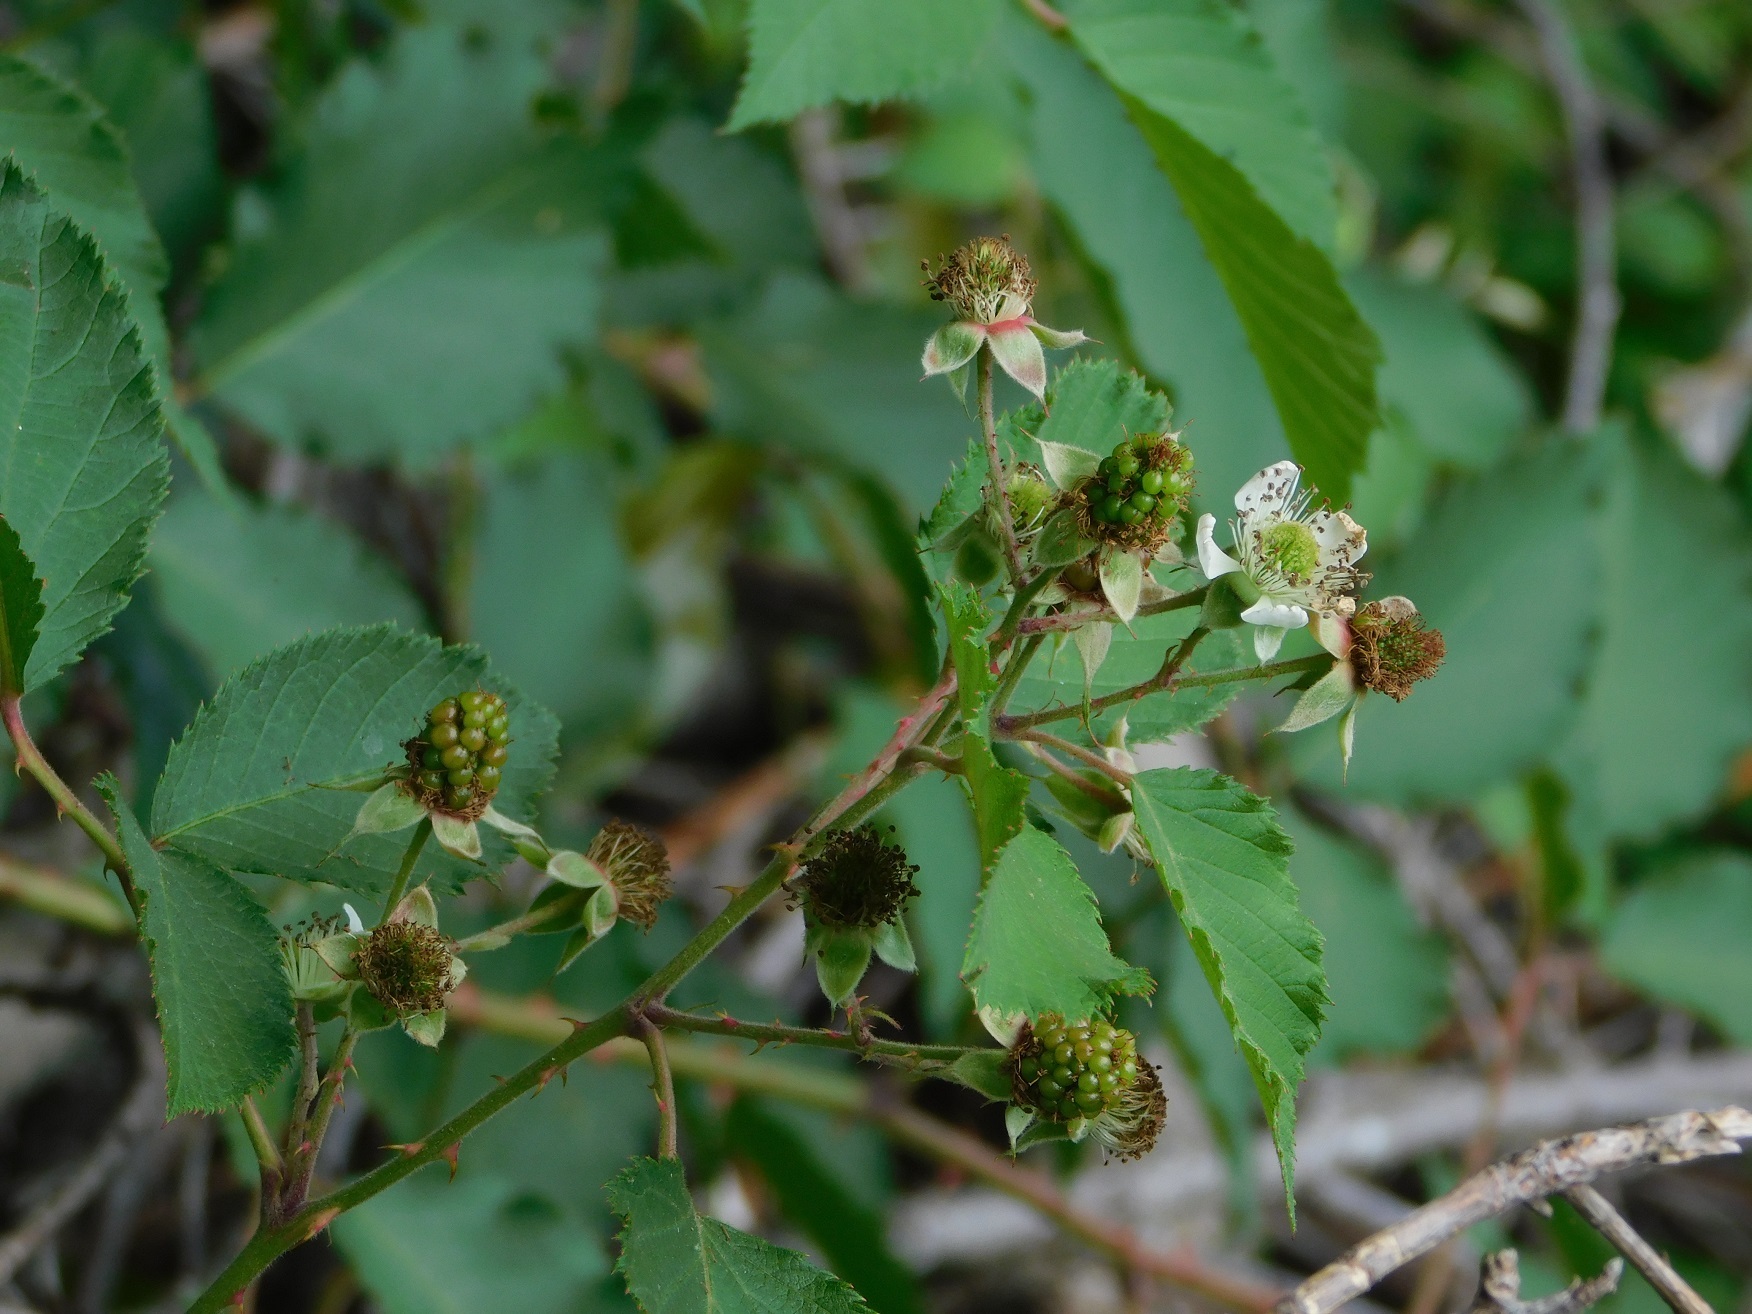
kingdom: Plantae
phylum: Tracheophyta
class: Magnoliopsida
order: Rosales
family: Rosaceae
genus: Rubus
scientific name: Rubus pringlei
